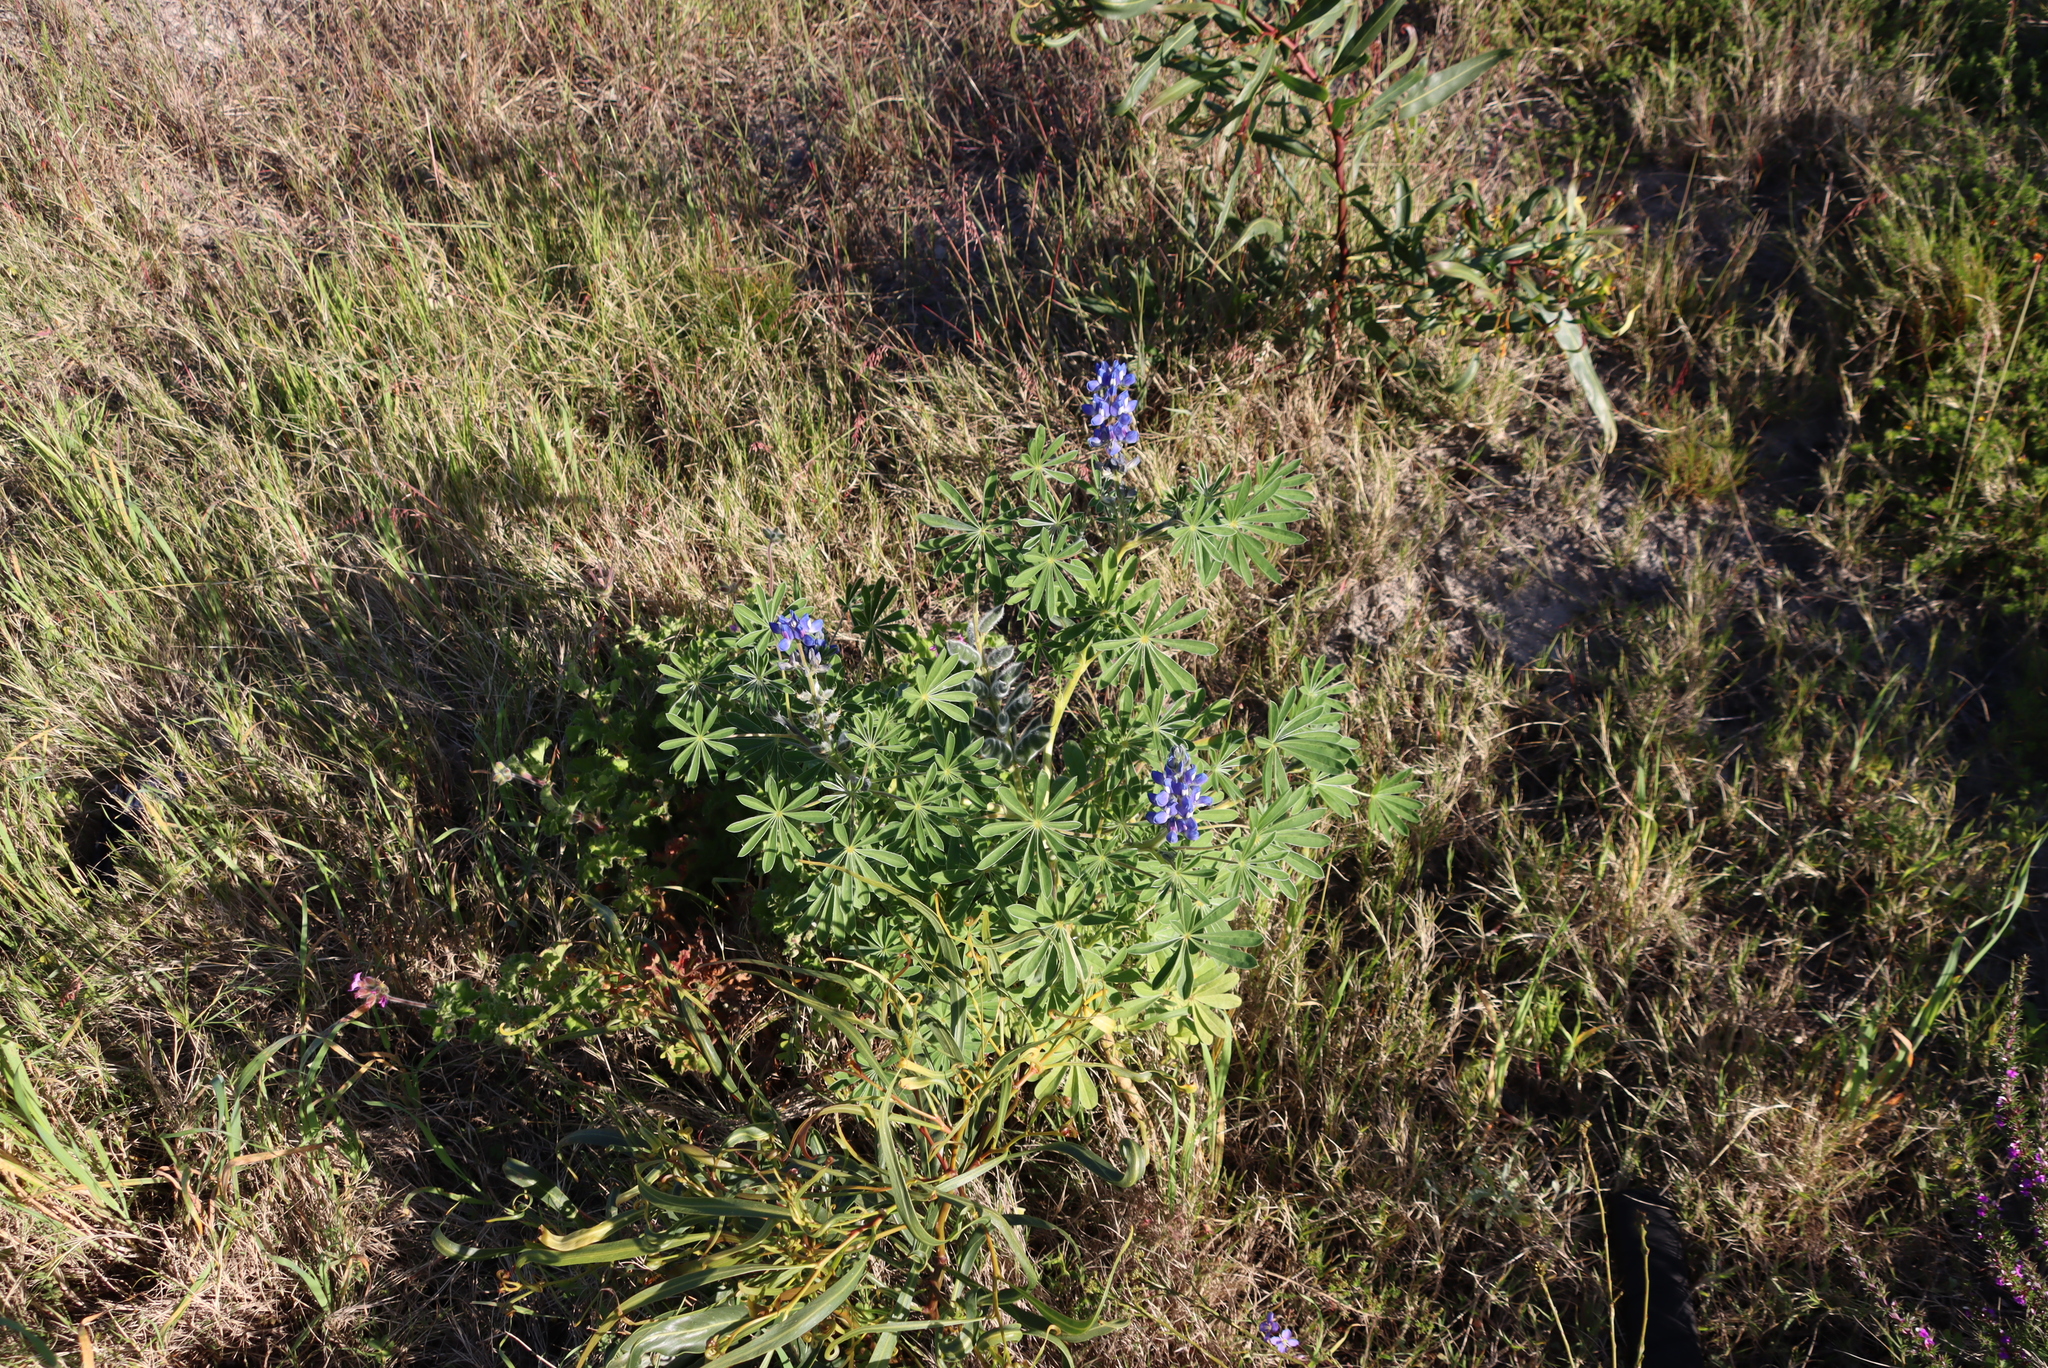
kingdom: Plantae
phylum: Tracheophyta
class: Magnoliopsida
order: Fabales
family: Fabaceae
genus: Lupinus
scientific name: Lupinus cosentinii
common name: Hairy blue lupin
